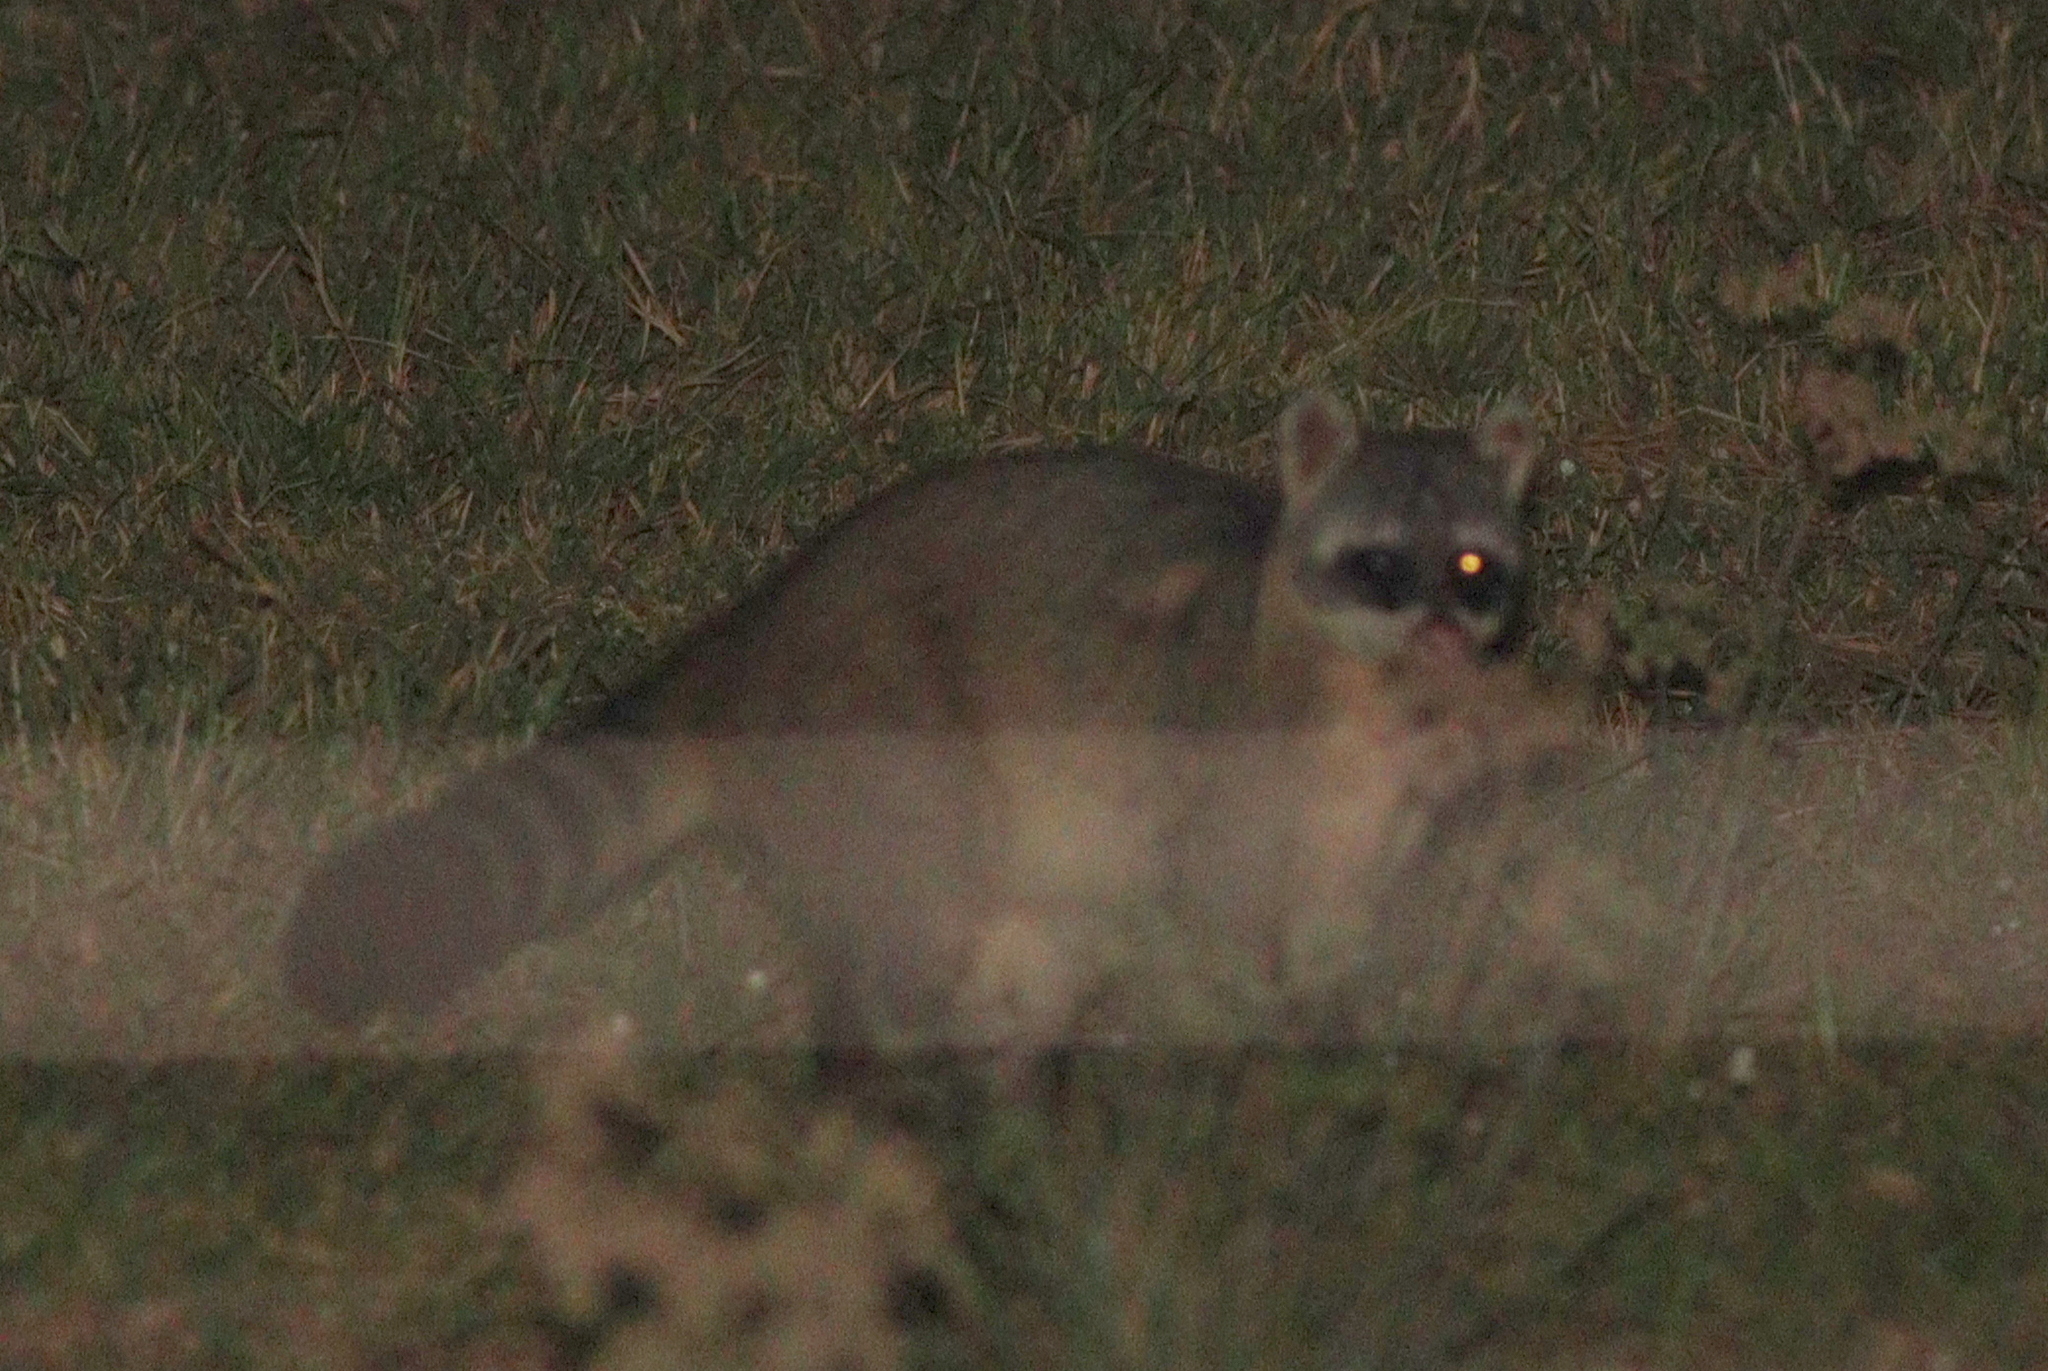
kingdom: Animalia
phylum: Chordata
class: Mammalia
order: Carnivora
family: Procyonidae
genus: Procyon
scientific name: Procyon cancrivorus
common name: Crab-eating raccoon
